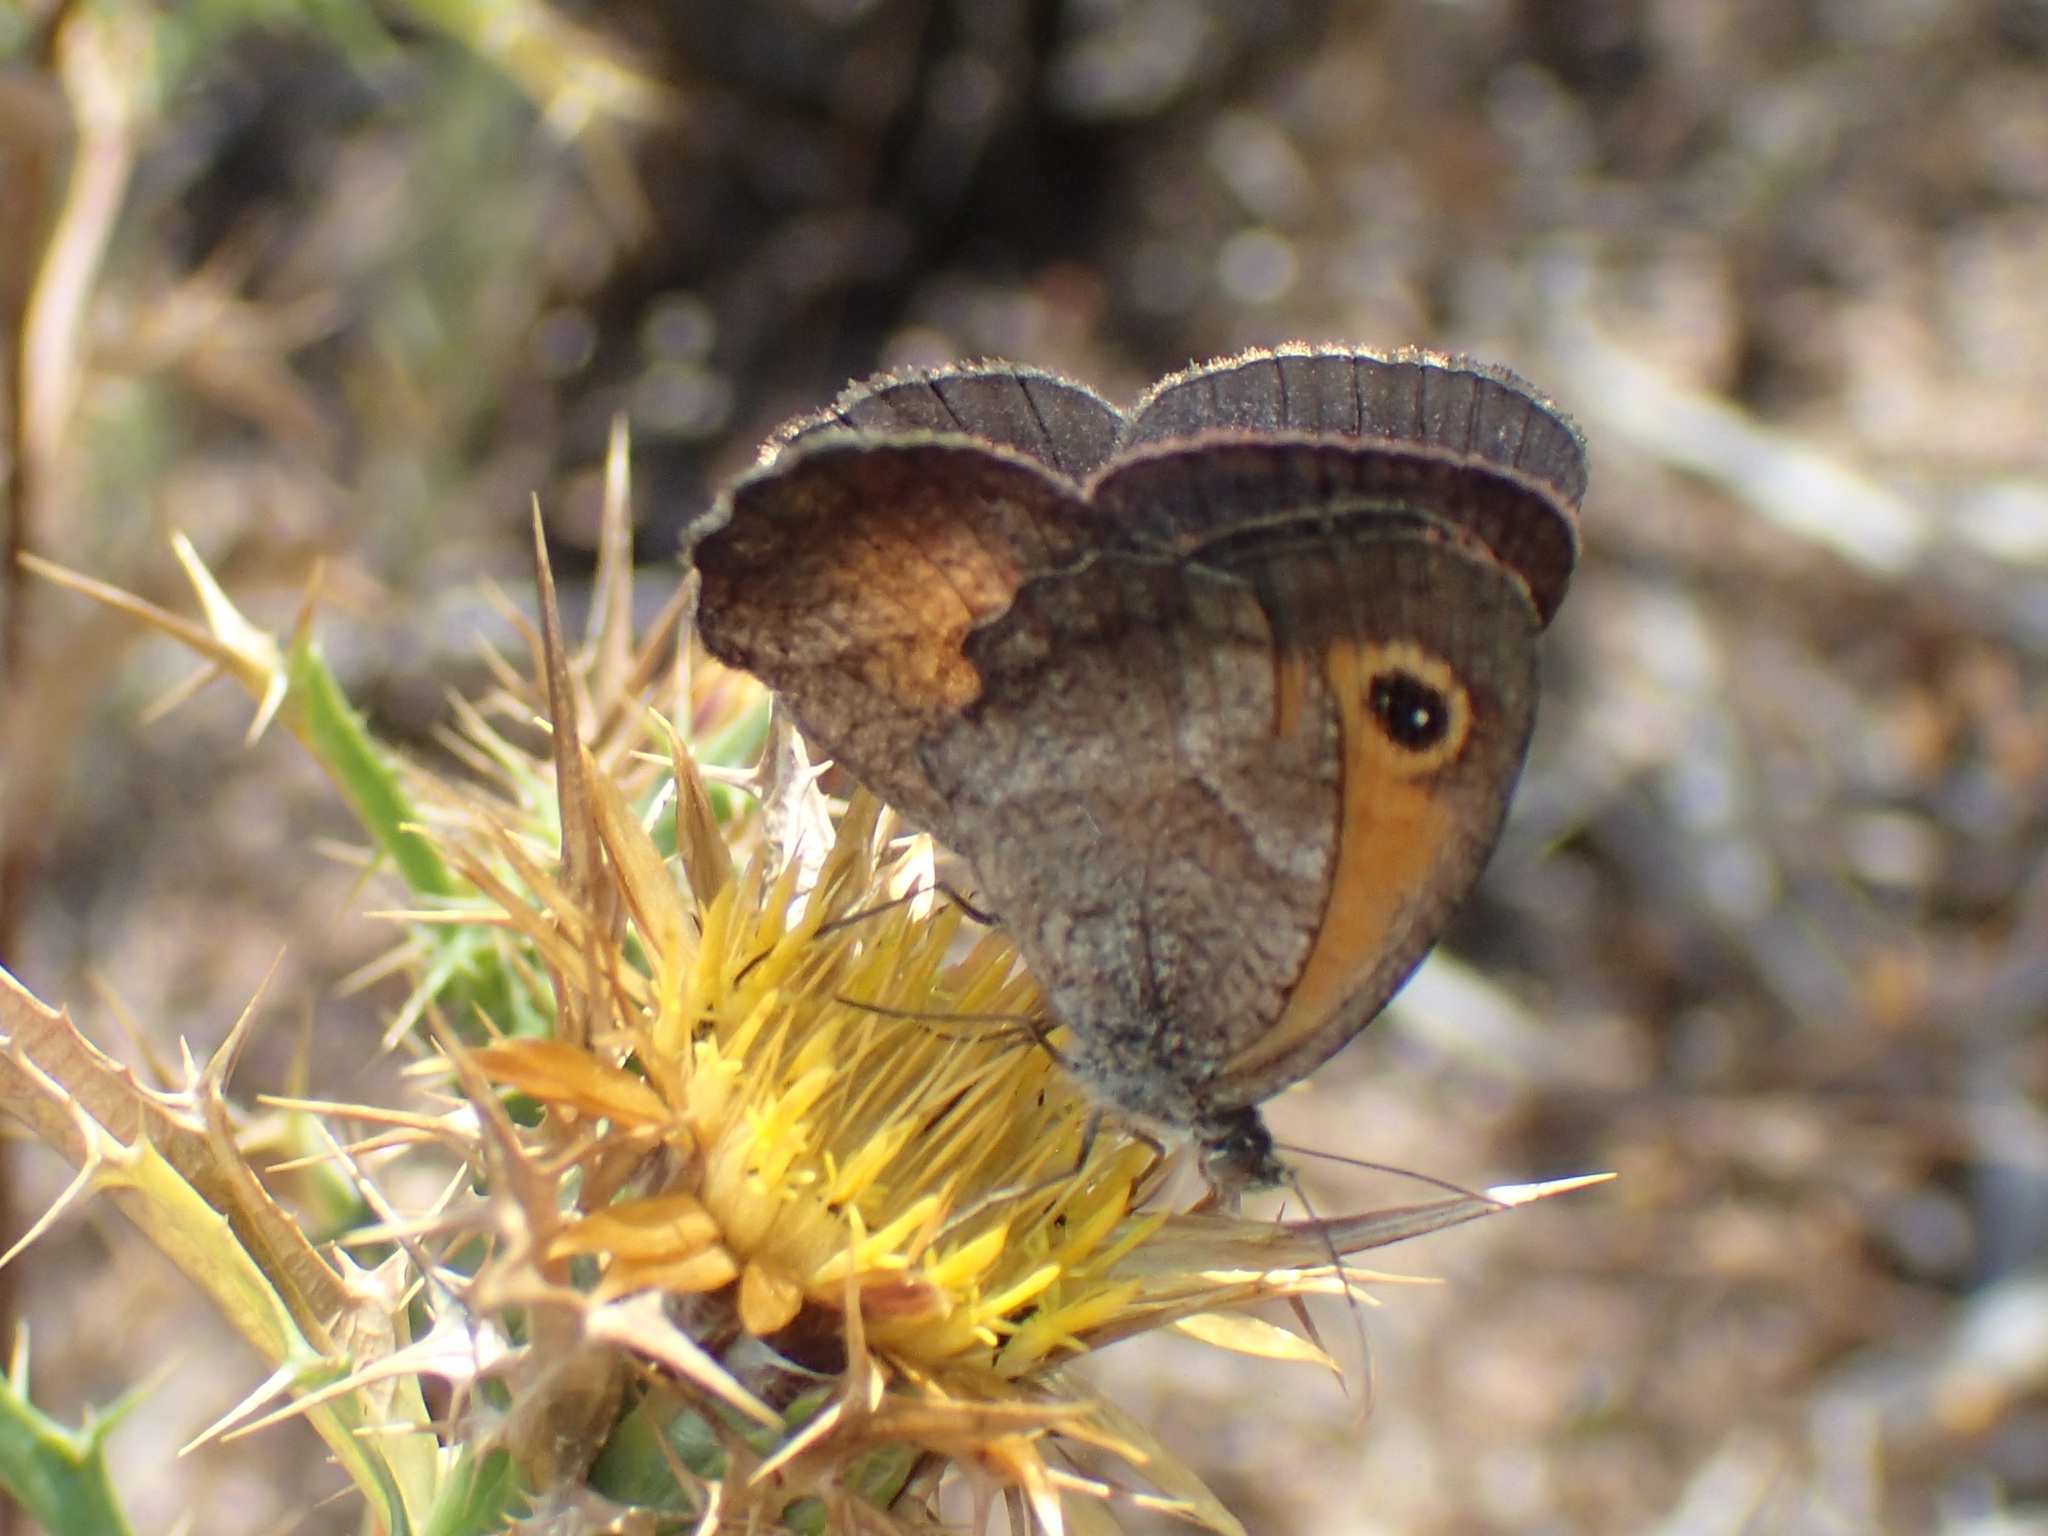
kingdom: Animalia
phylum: Arthropoda
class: Insecta
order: Lepidoptera
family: Nymphalidae
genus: Pyronia
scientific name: Pyronia cecilia
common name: Southern gatekeeper
